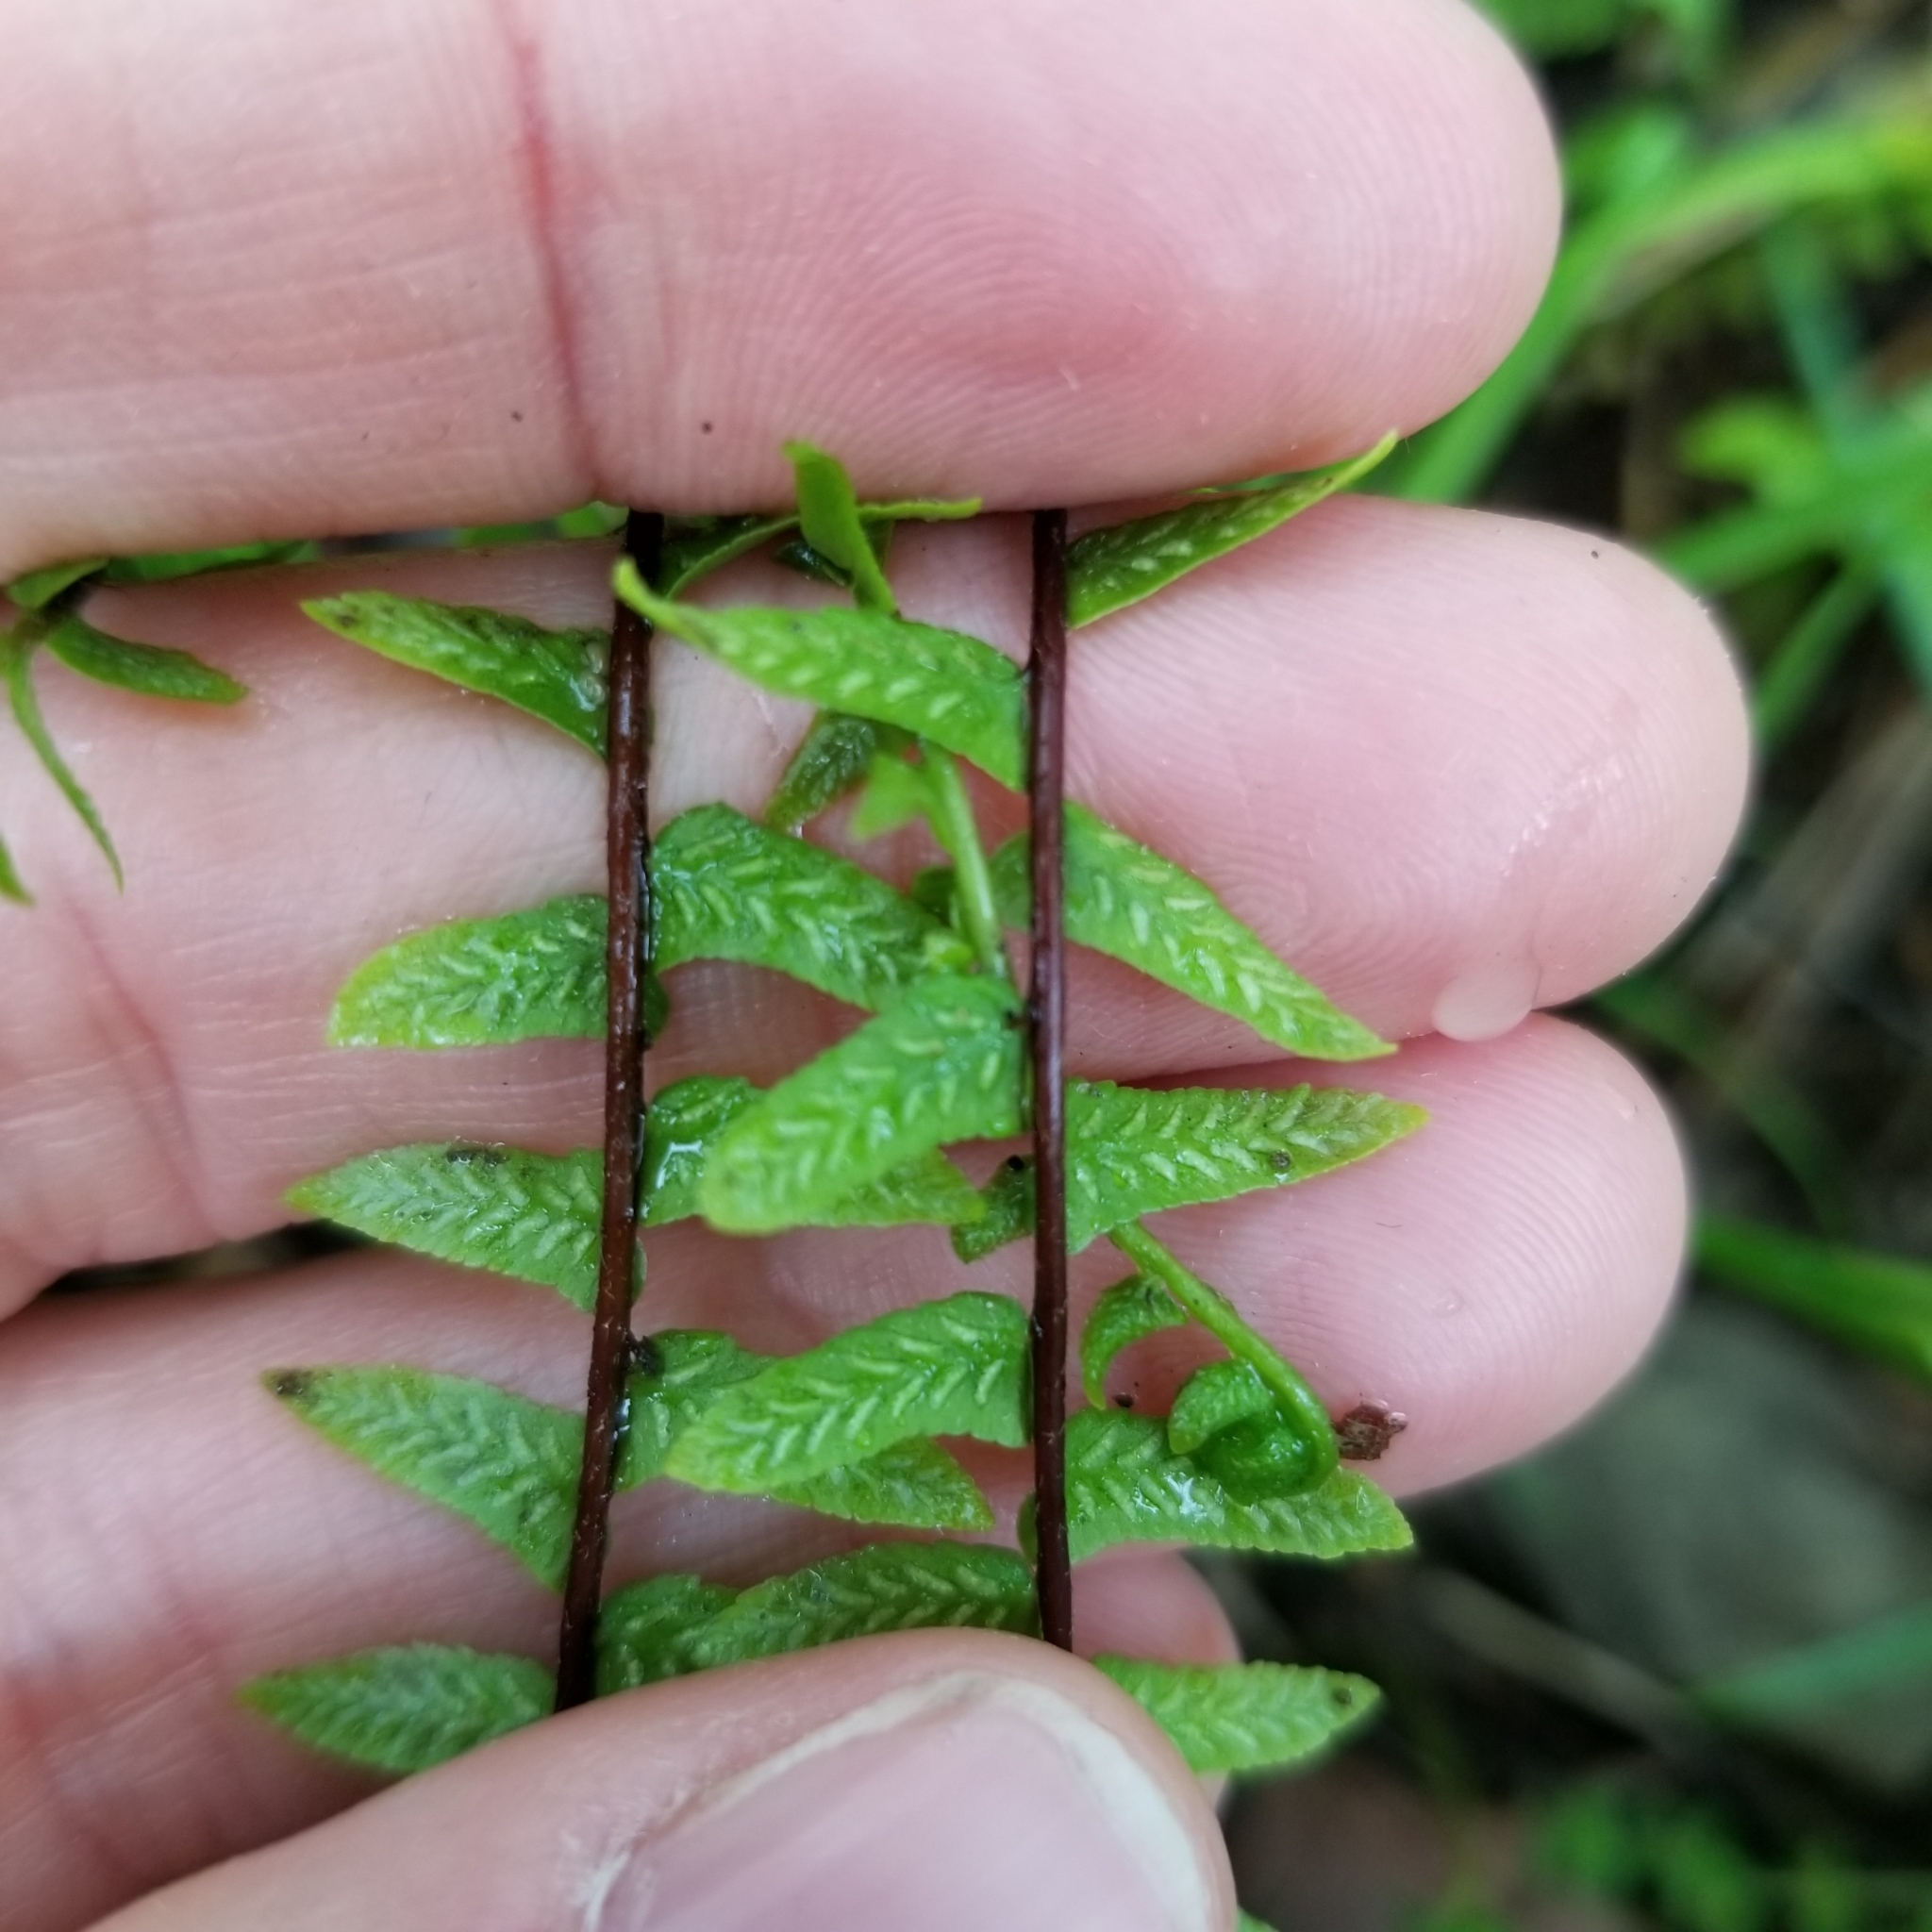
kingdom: Plantae
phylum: Tracheophyta
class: Polypodiopsida
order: Polypodiales
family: Aspleniaceae
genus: Asplenium
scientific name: Asplenium platyneuron
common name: Ebony spleenwort
